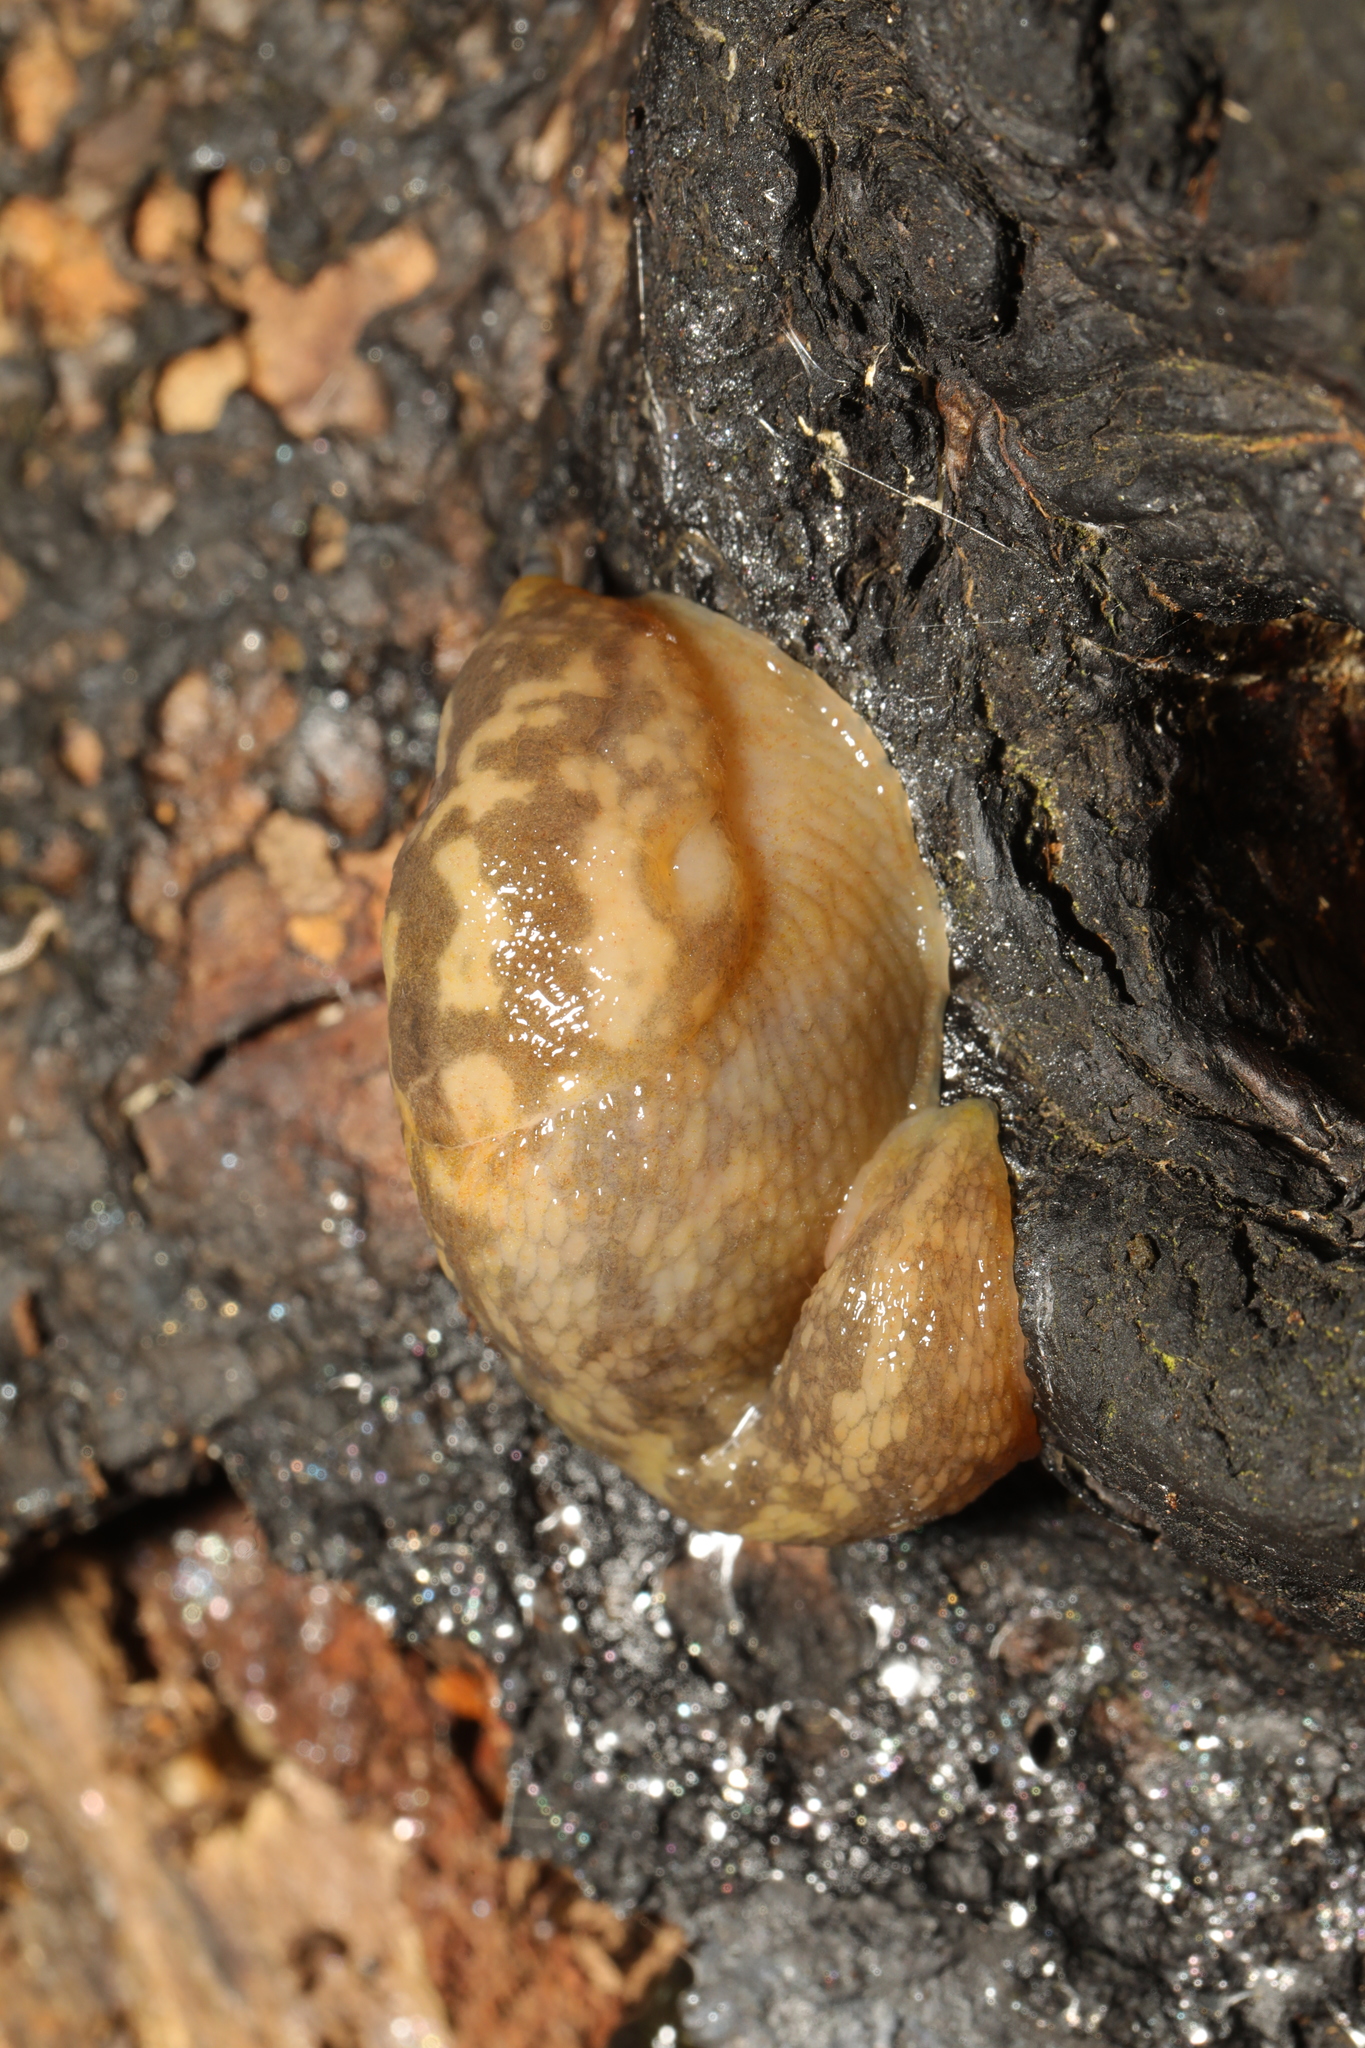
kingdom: Animalia
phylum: Mollusca
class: Gastropoda
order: Stylommatophora
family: Limacidae
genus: Limacus
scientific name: Limacus maculatus
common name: Irish yellow slug
